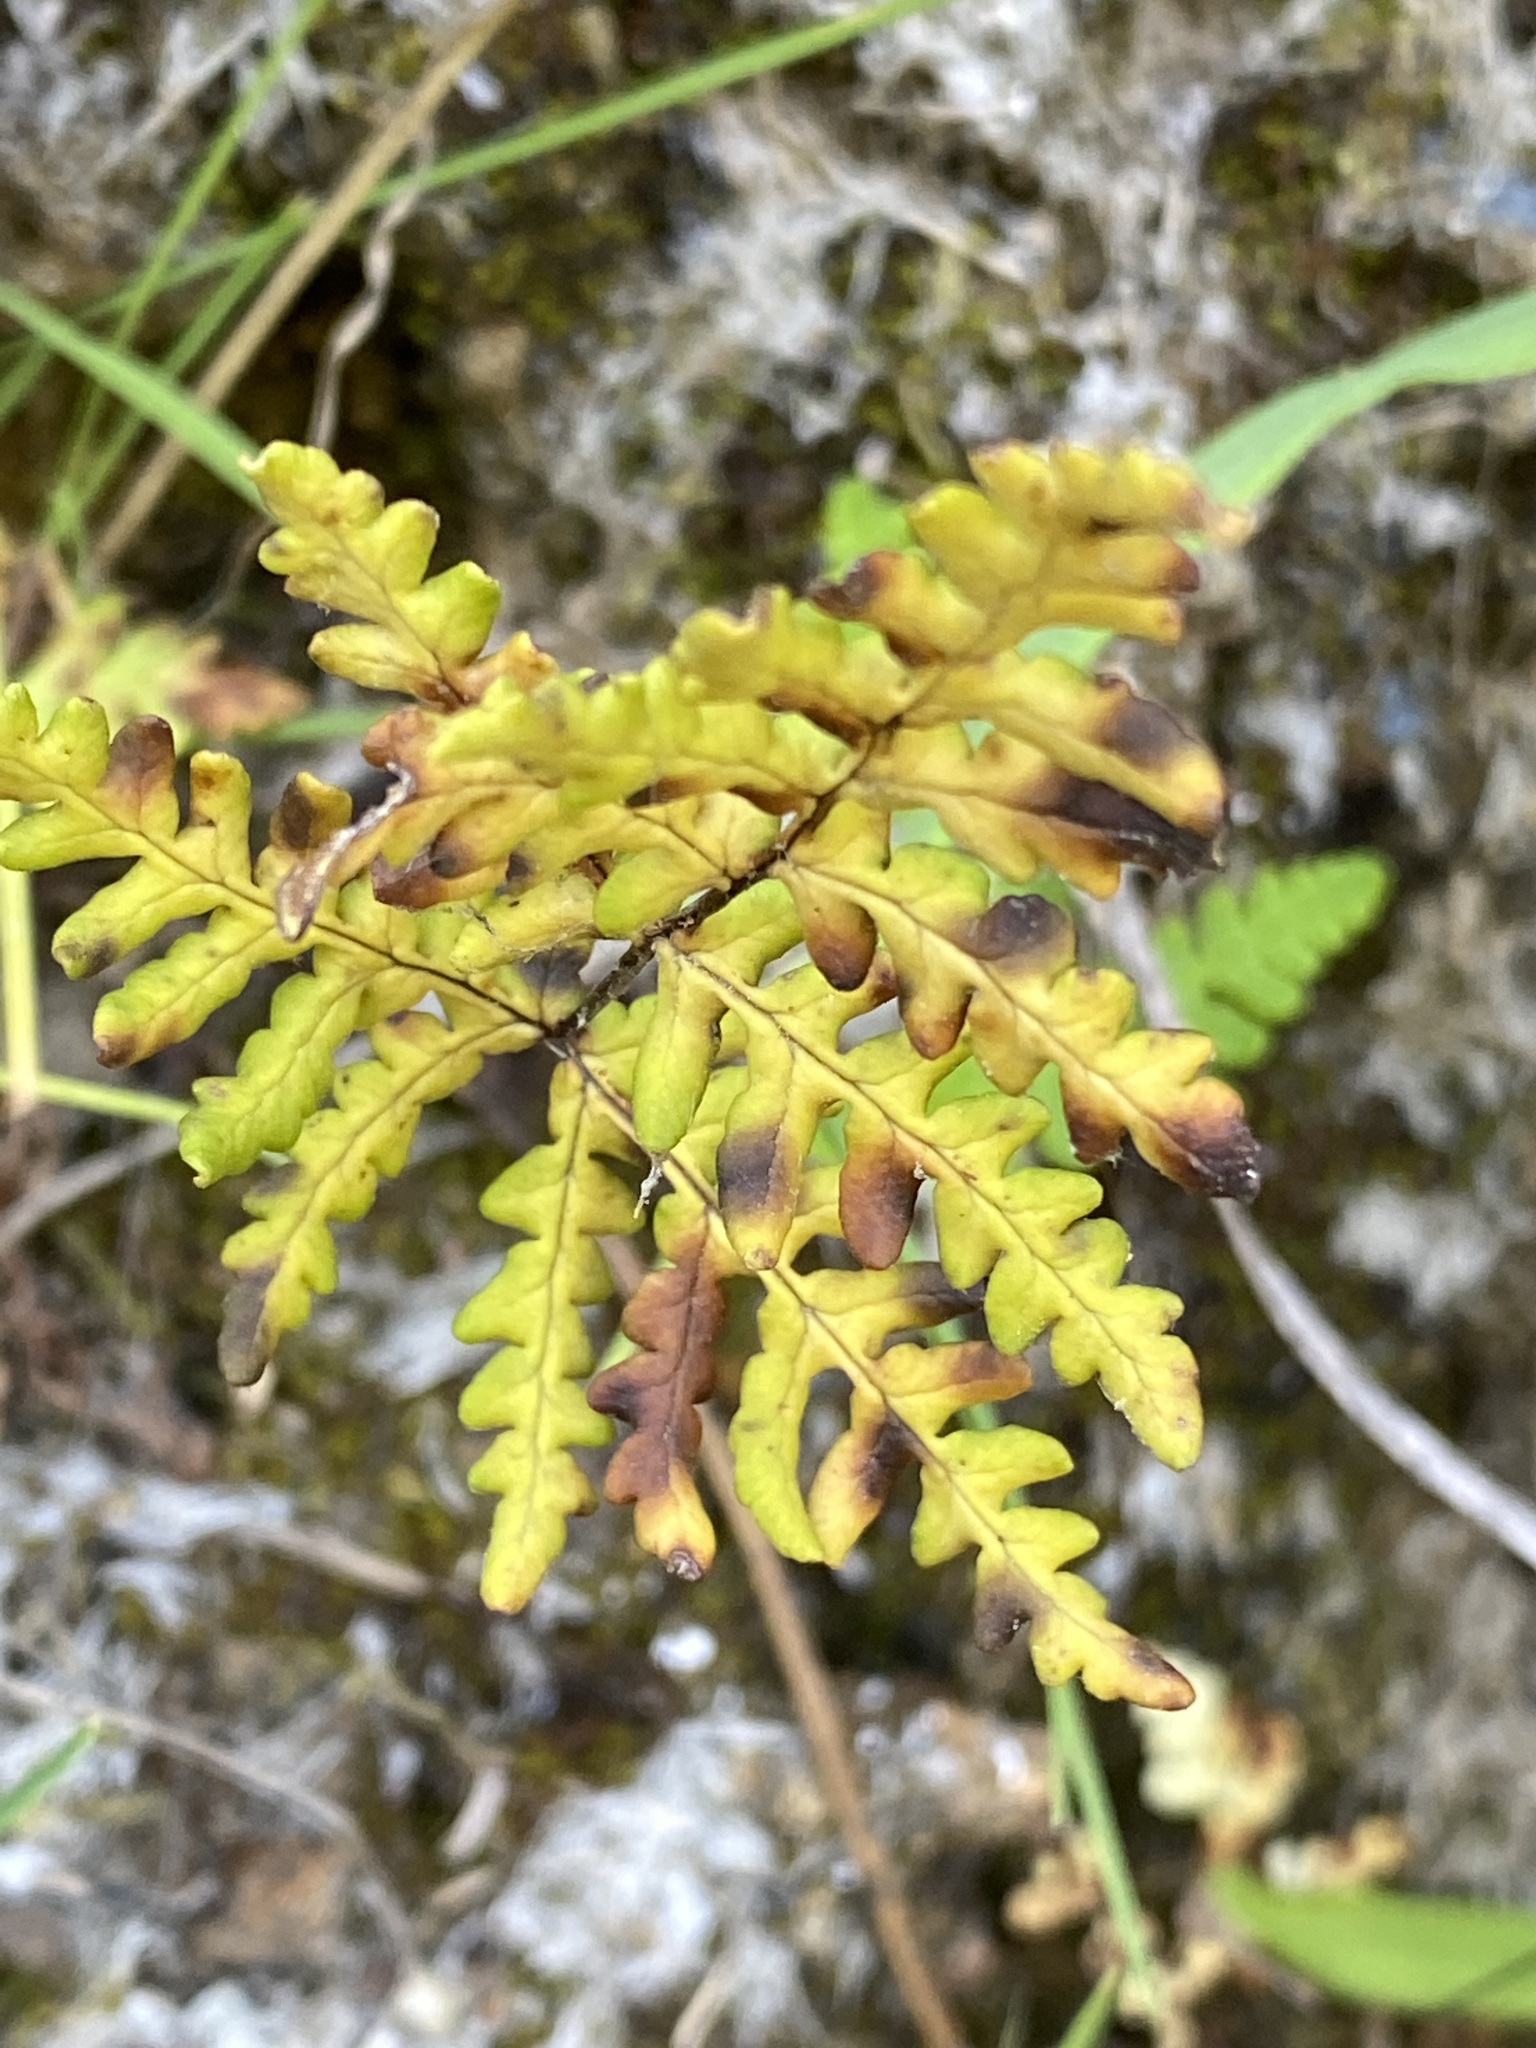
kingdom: Plantae
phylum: Tracheophyta
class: Polypodiopsida
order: Polypodiales
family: Pteridaceae
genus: Pentagramma
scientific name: Pentagramma triangularis
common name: Gold fern
